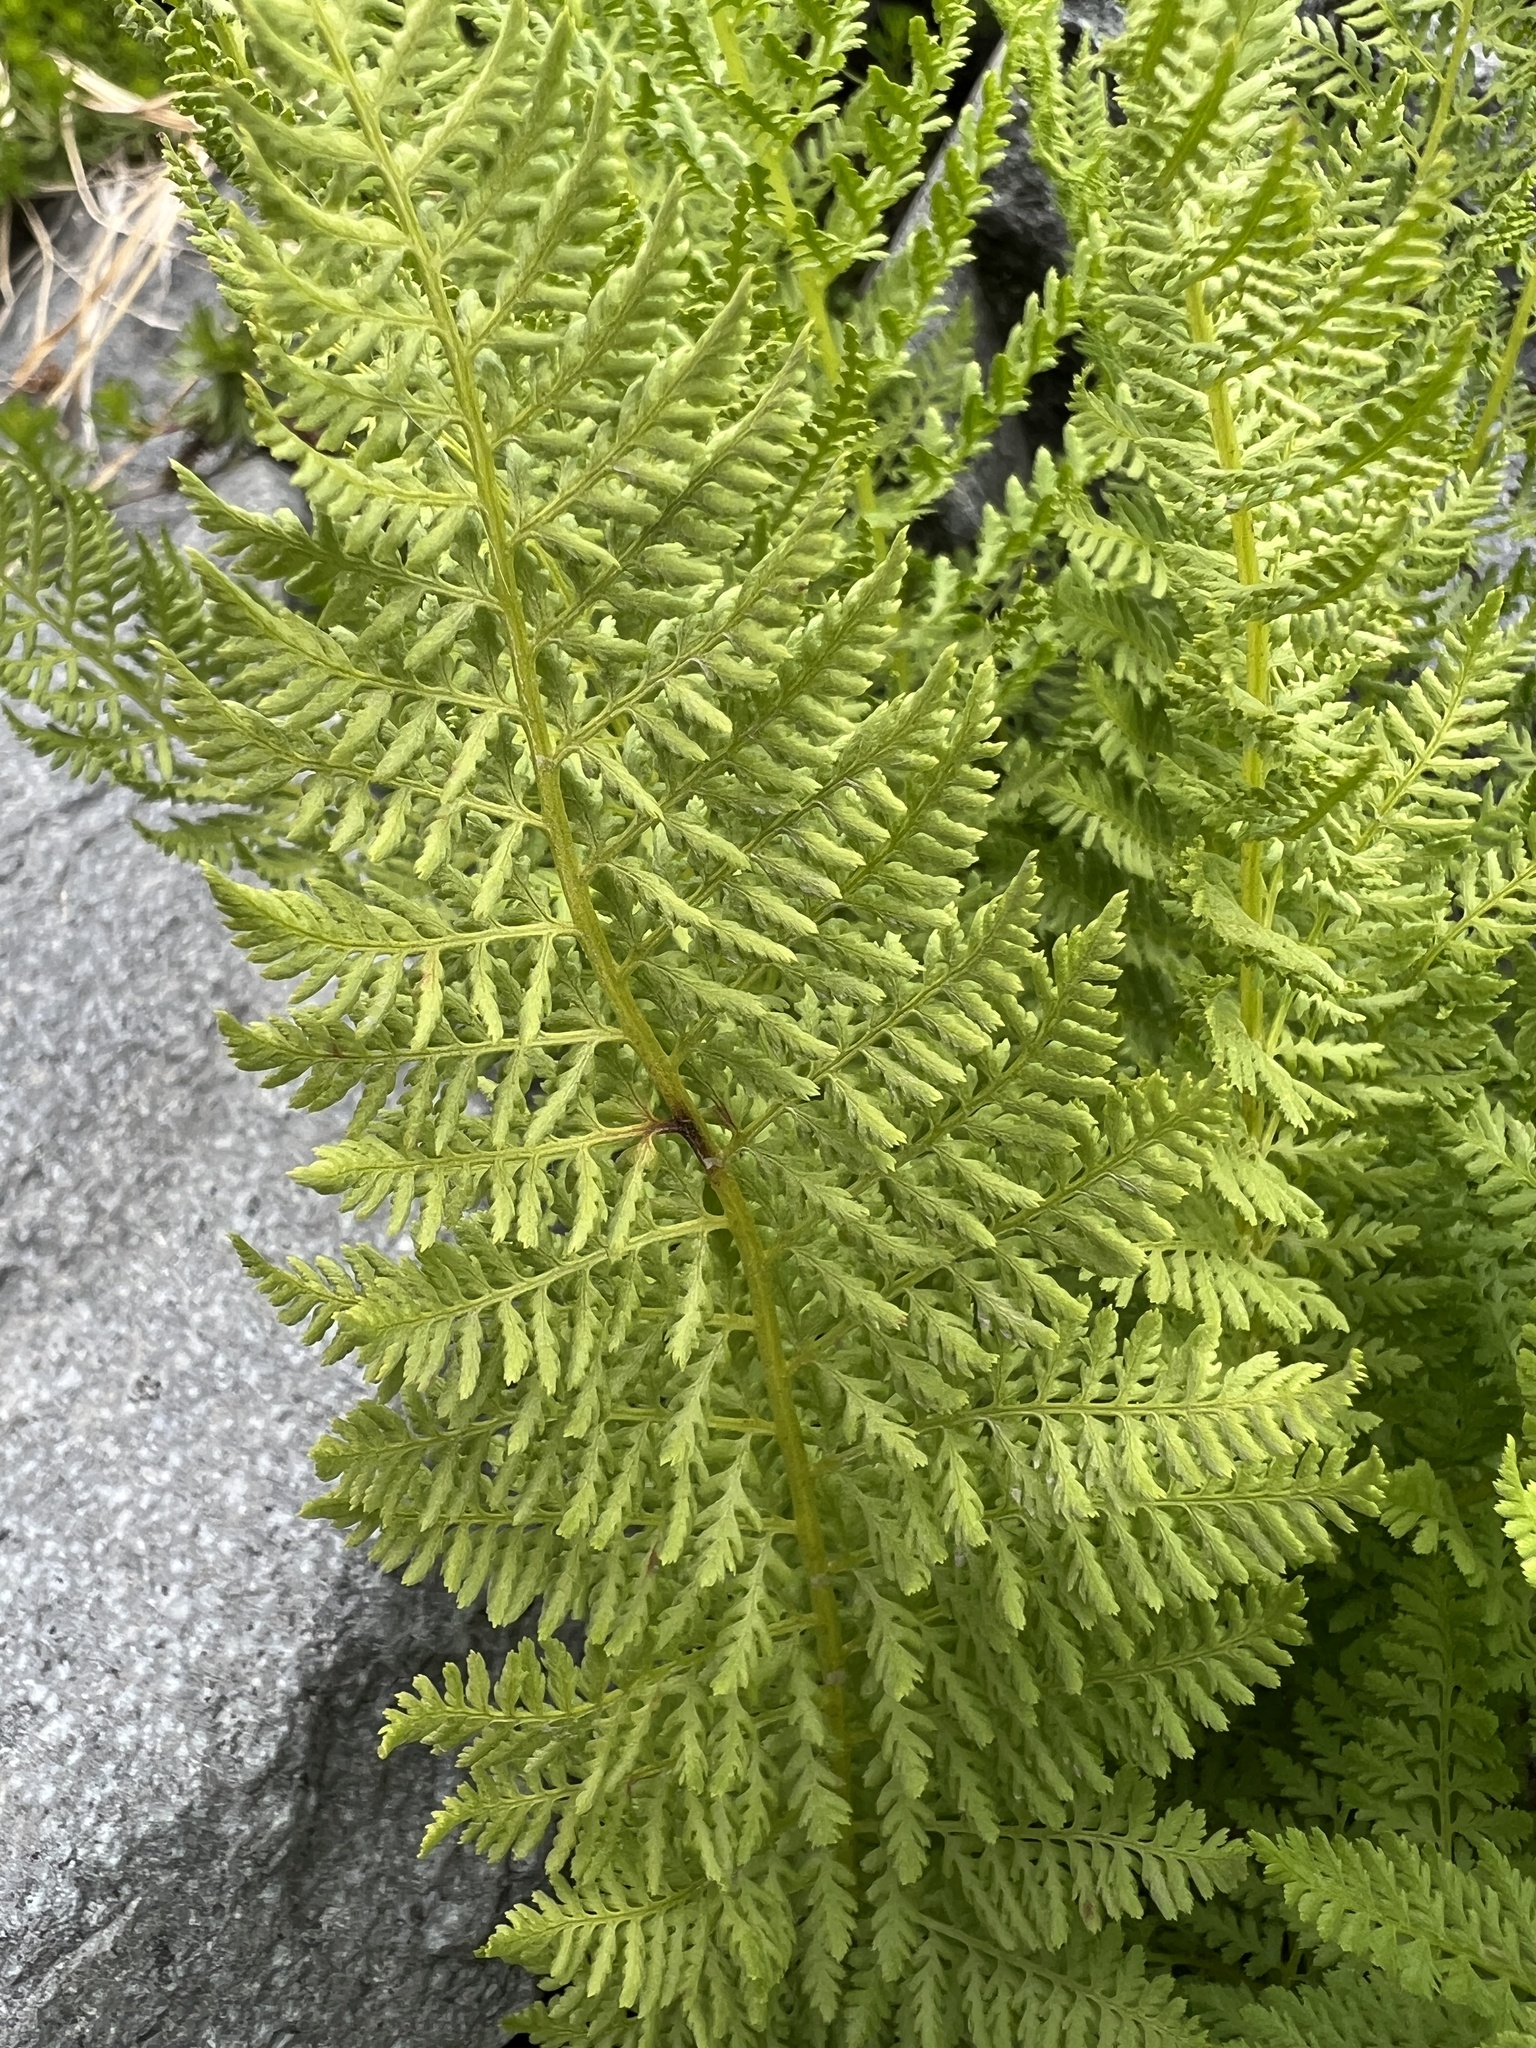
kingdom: Plantae
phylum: Tracheophyta
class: Polypodiopsida
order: Polypodiales
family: Athyriaceae
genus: Athyrium
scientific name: Athyrium americanum
